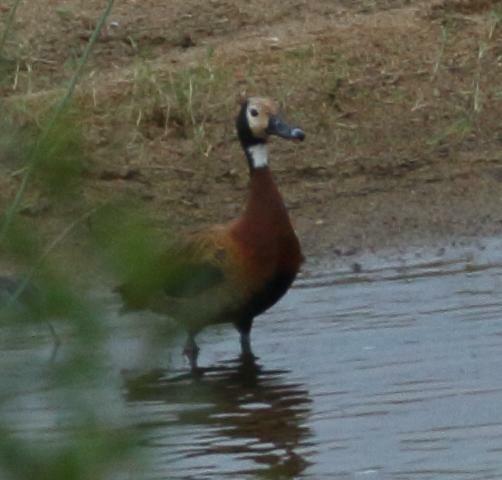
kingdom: Animalia
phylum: Chordata
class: Aves
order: Anseriformes
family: Anatidae
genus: Dendrocygna
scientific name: Dendrocygna viduata
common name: White-faced whistling duck
